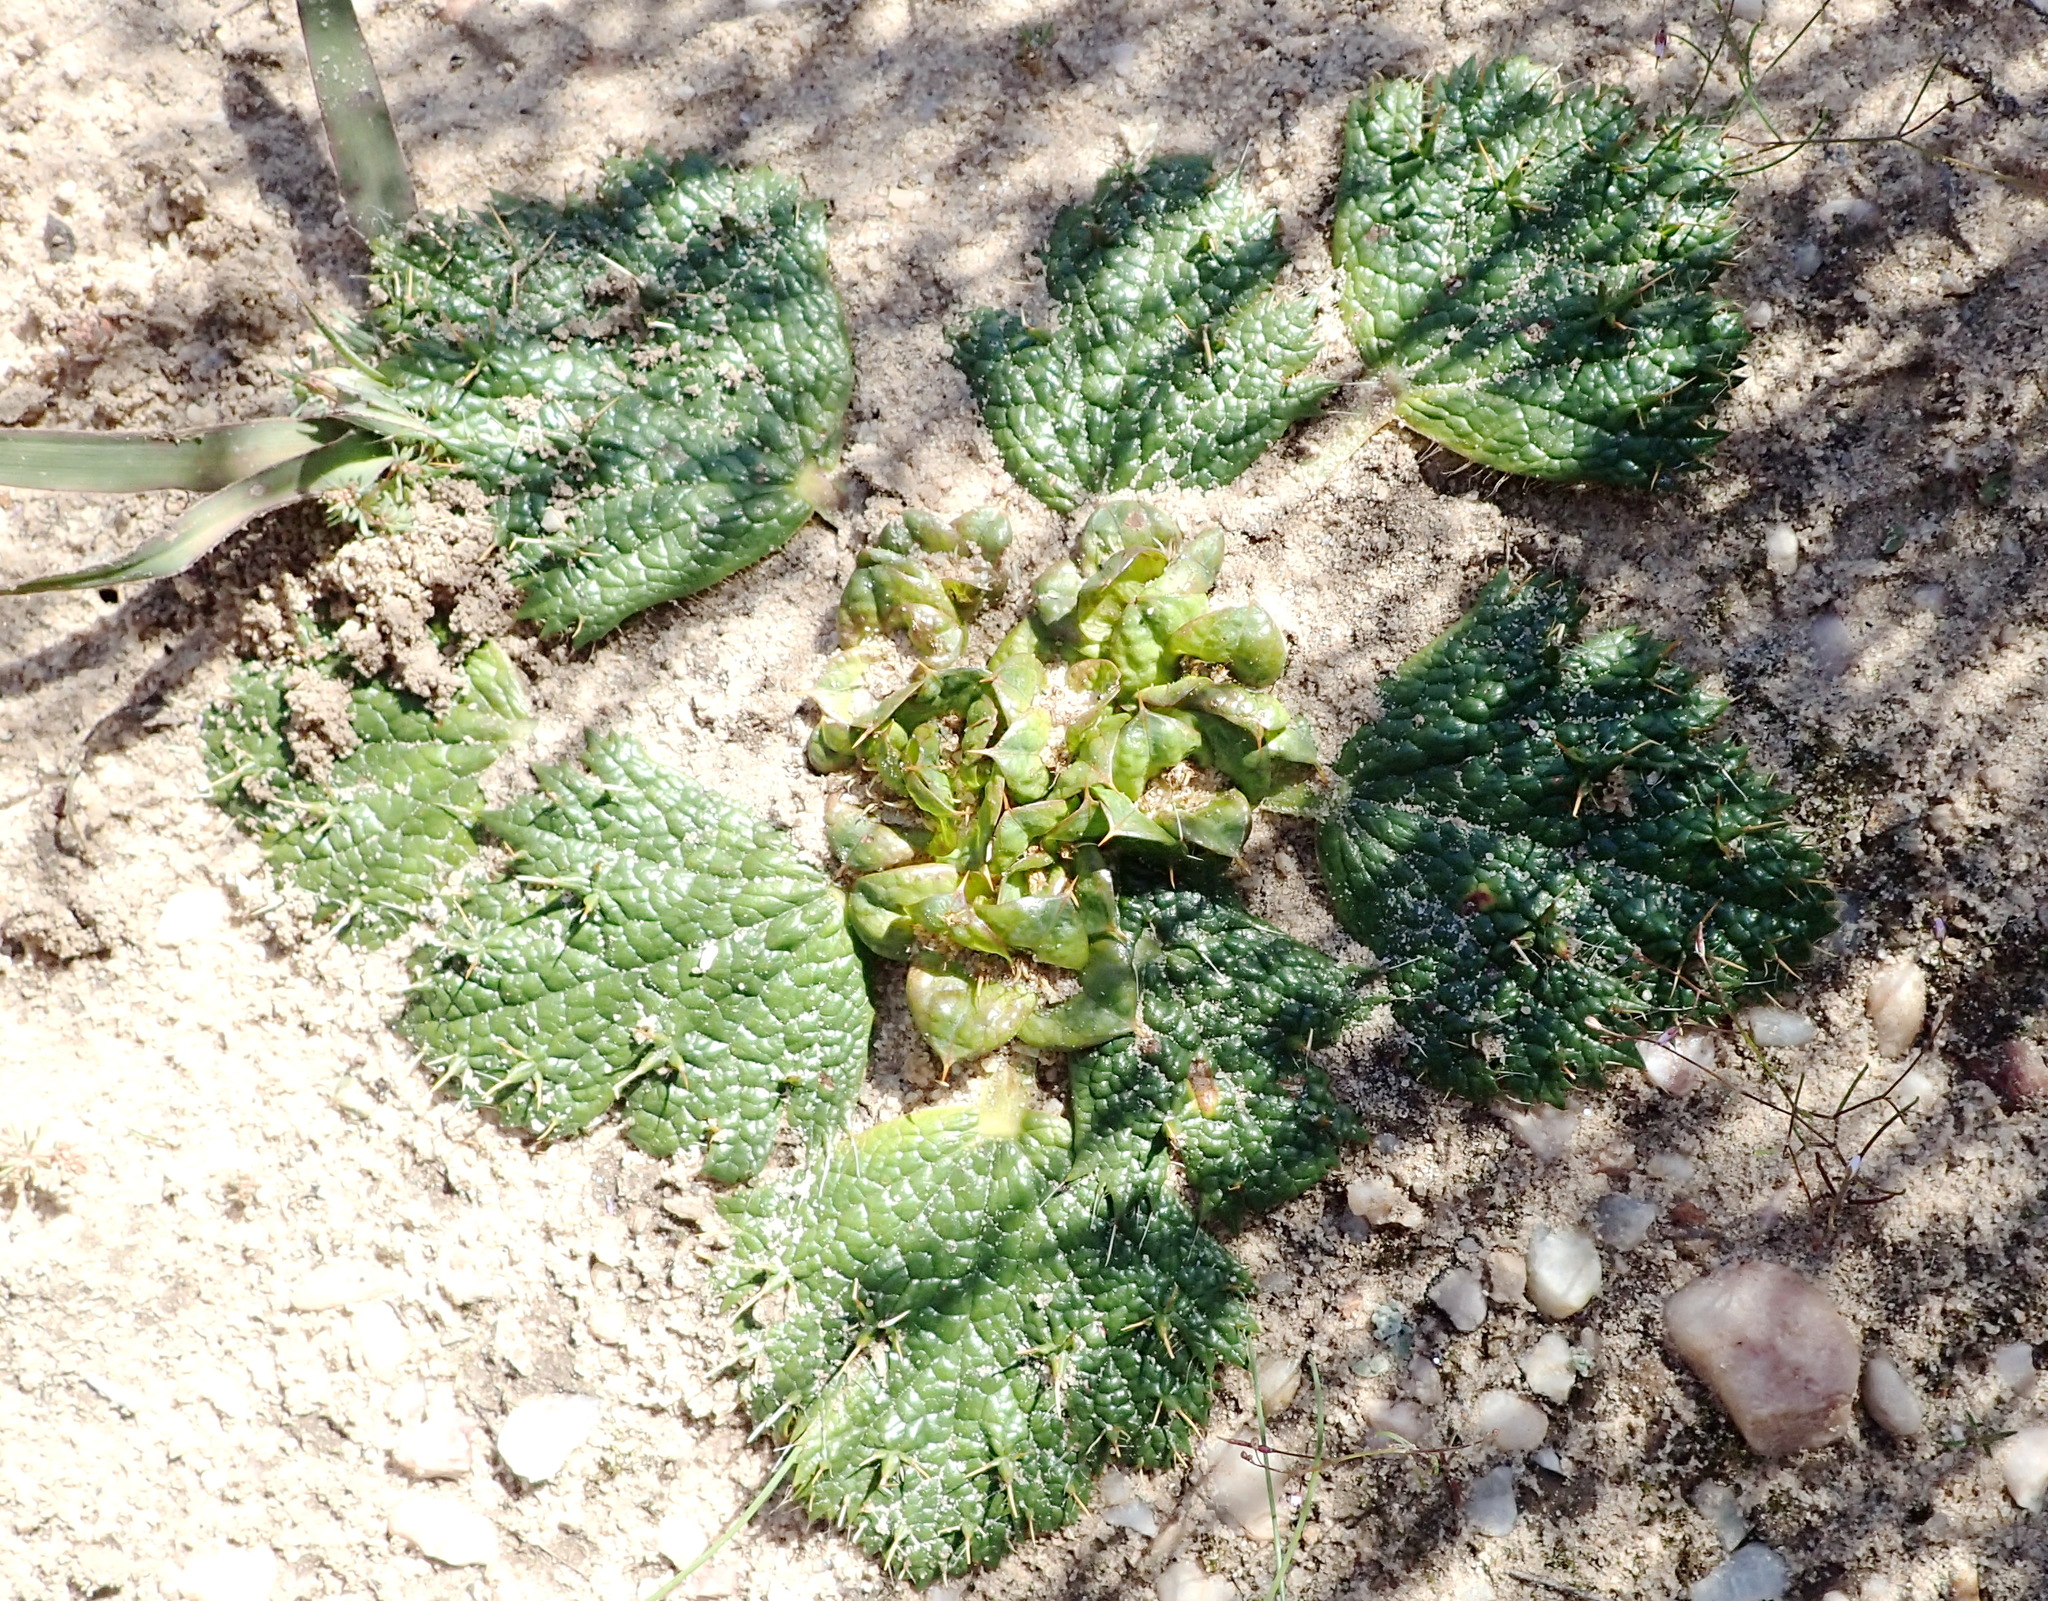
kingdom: Plantae
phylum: Tracheophyta
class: Magnoliopsida
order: Apiales
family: Apiaceae
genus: Arctopus
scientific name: Arctopus monacanthus
